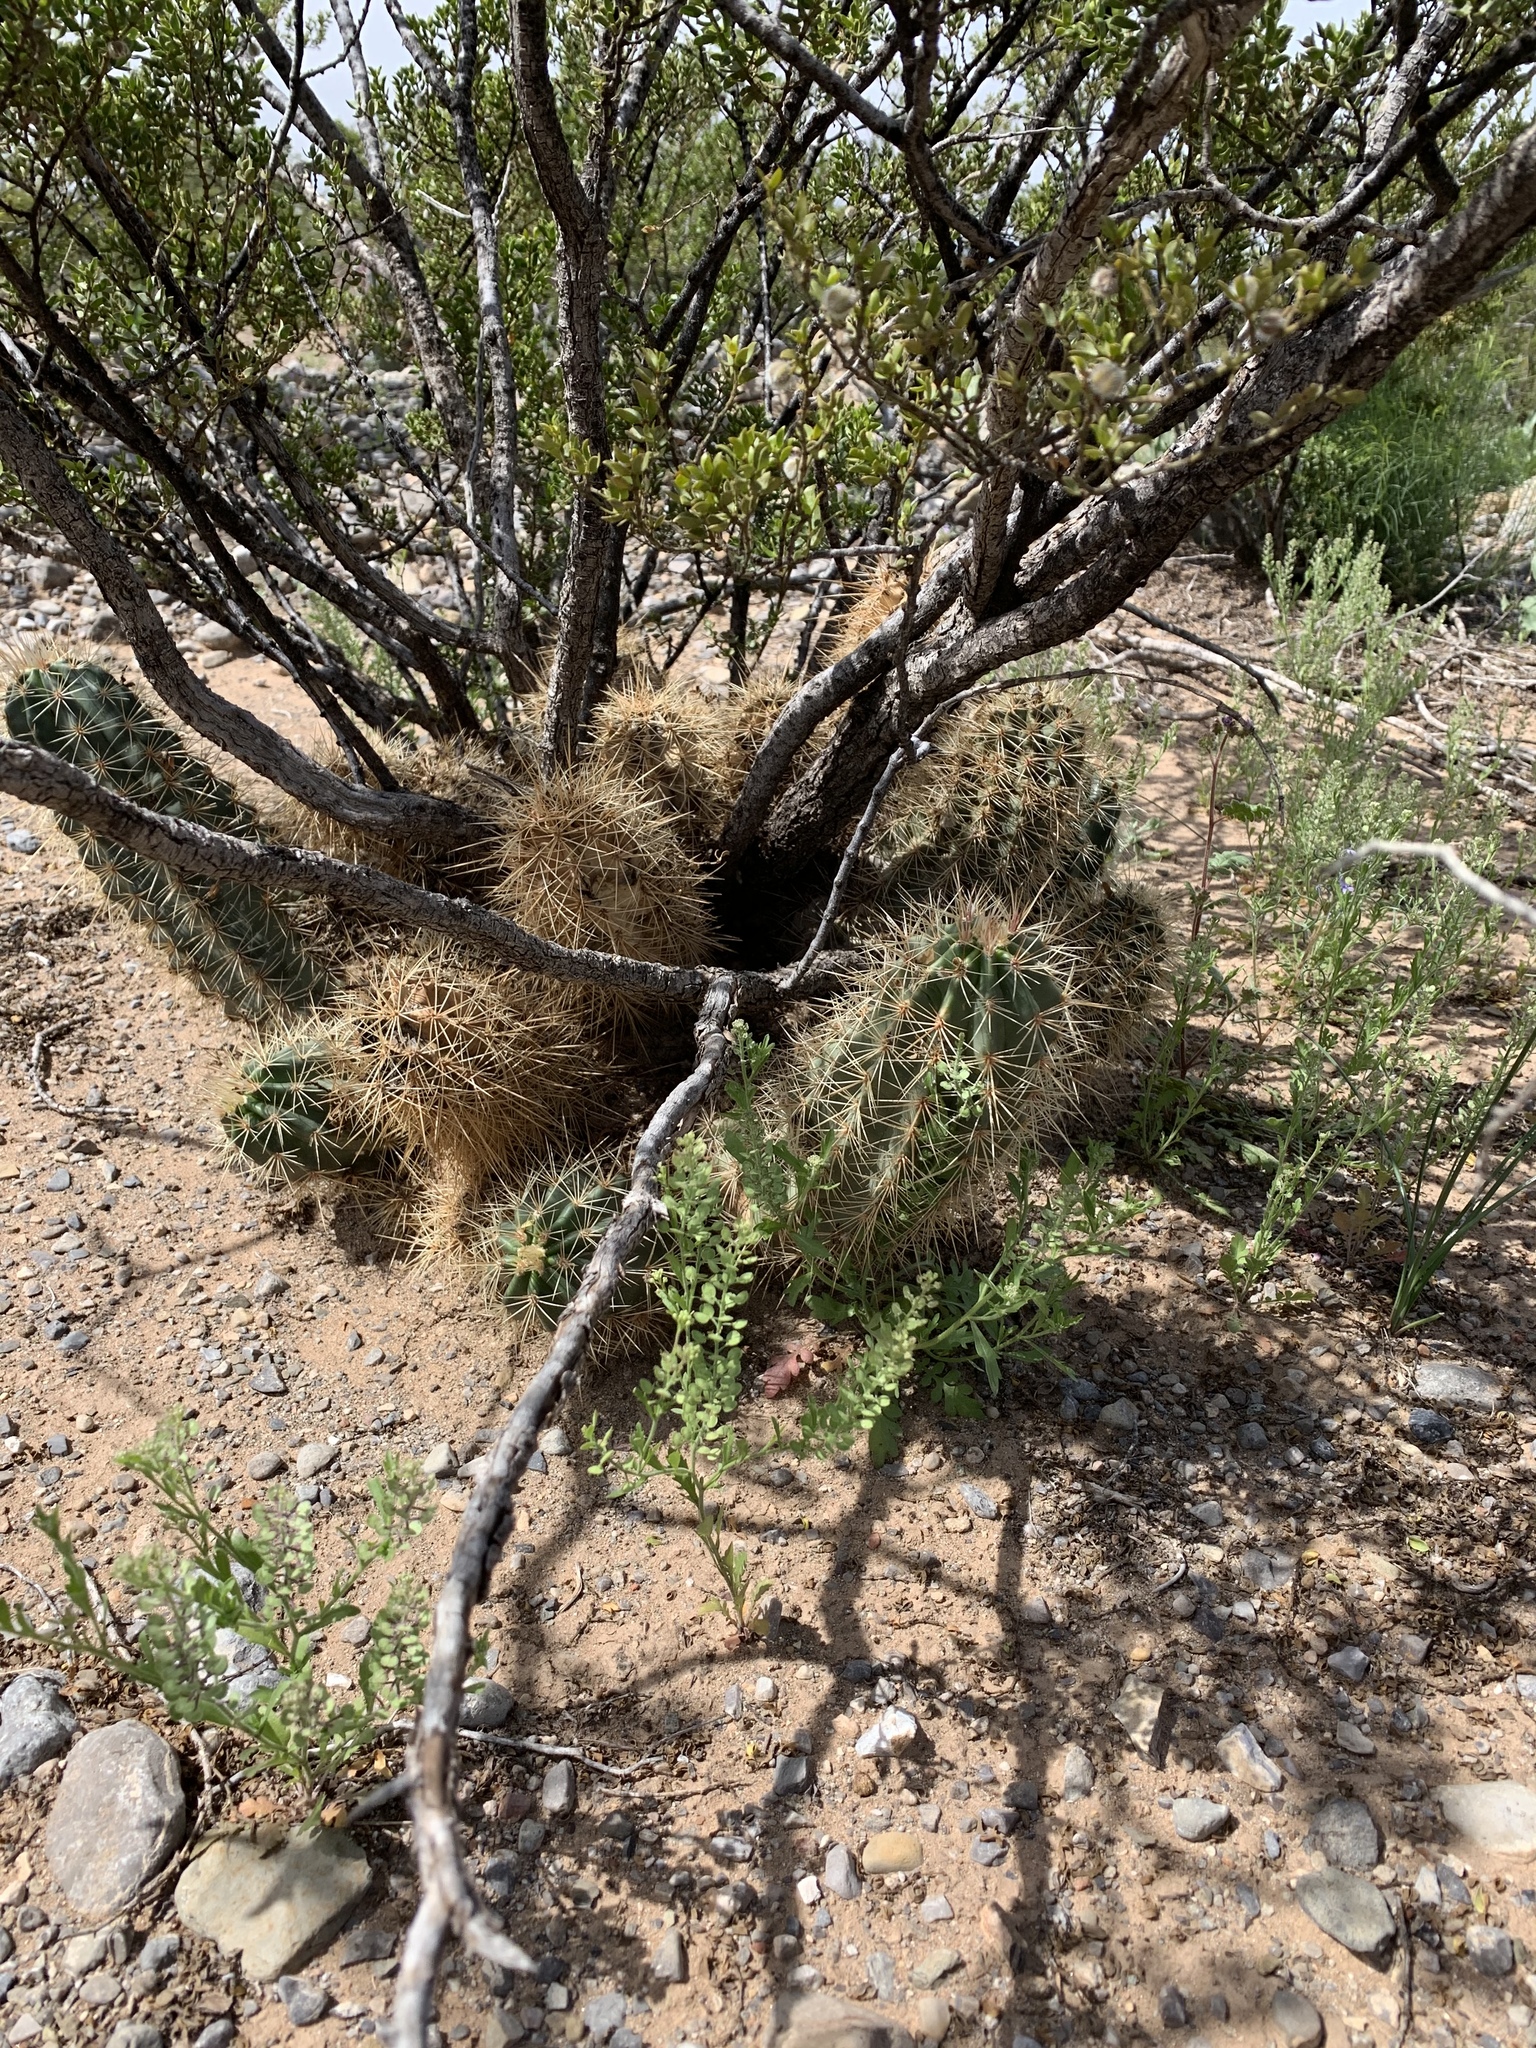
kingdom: Plantae
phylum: Tracheophyta
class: Magnoliopsida
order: Caryophyllales
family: Cactaceae
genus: Echinocereus
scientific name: Echinocereus coccineus
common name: Scarlet hedgehog cactus
